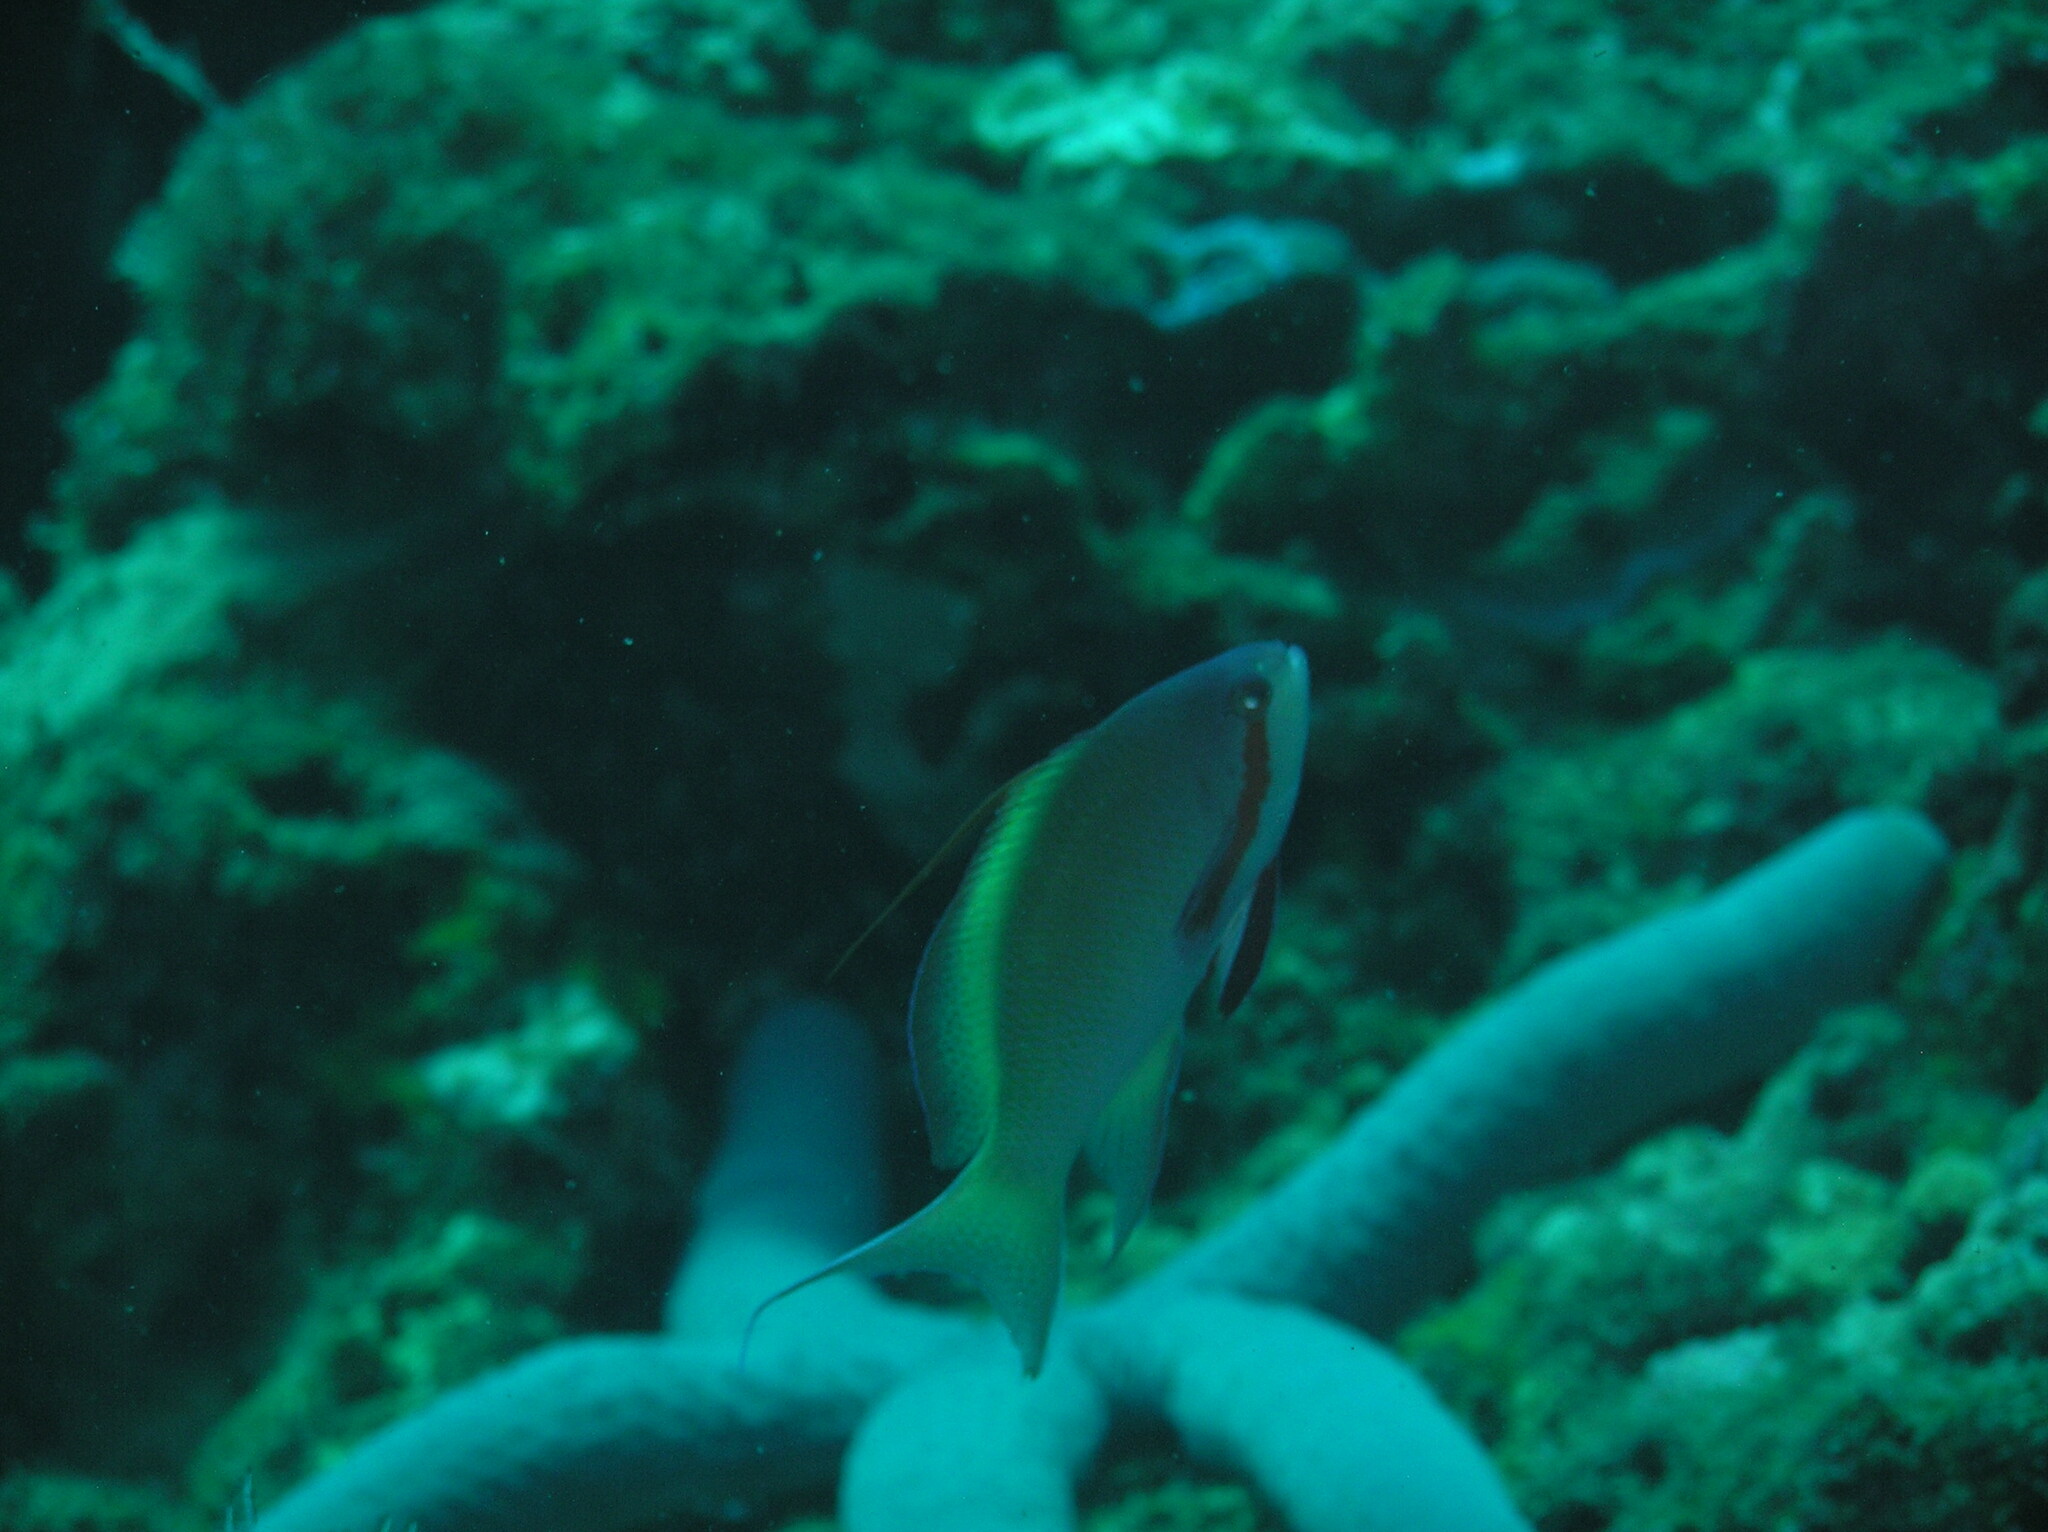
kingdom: Animalia
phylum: Chordata
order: Perciformes
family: Serranidae
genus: Pseudanthias
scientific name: Pseudanthias huchtii
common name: Pacific basslet
